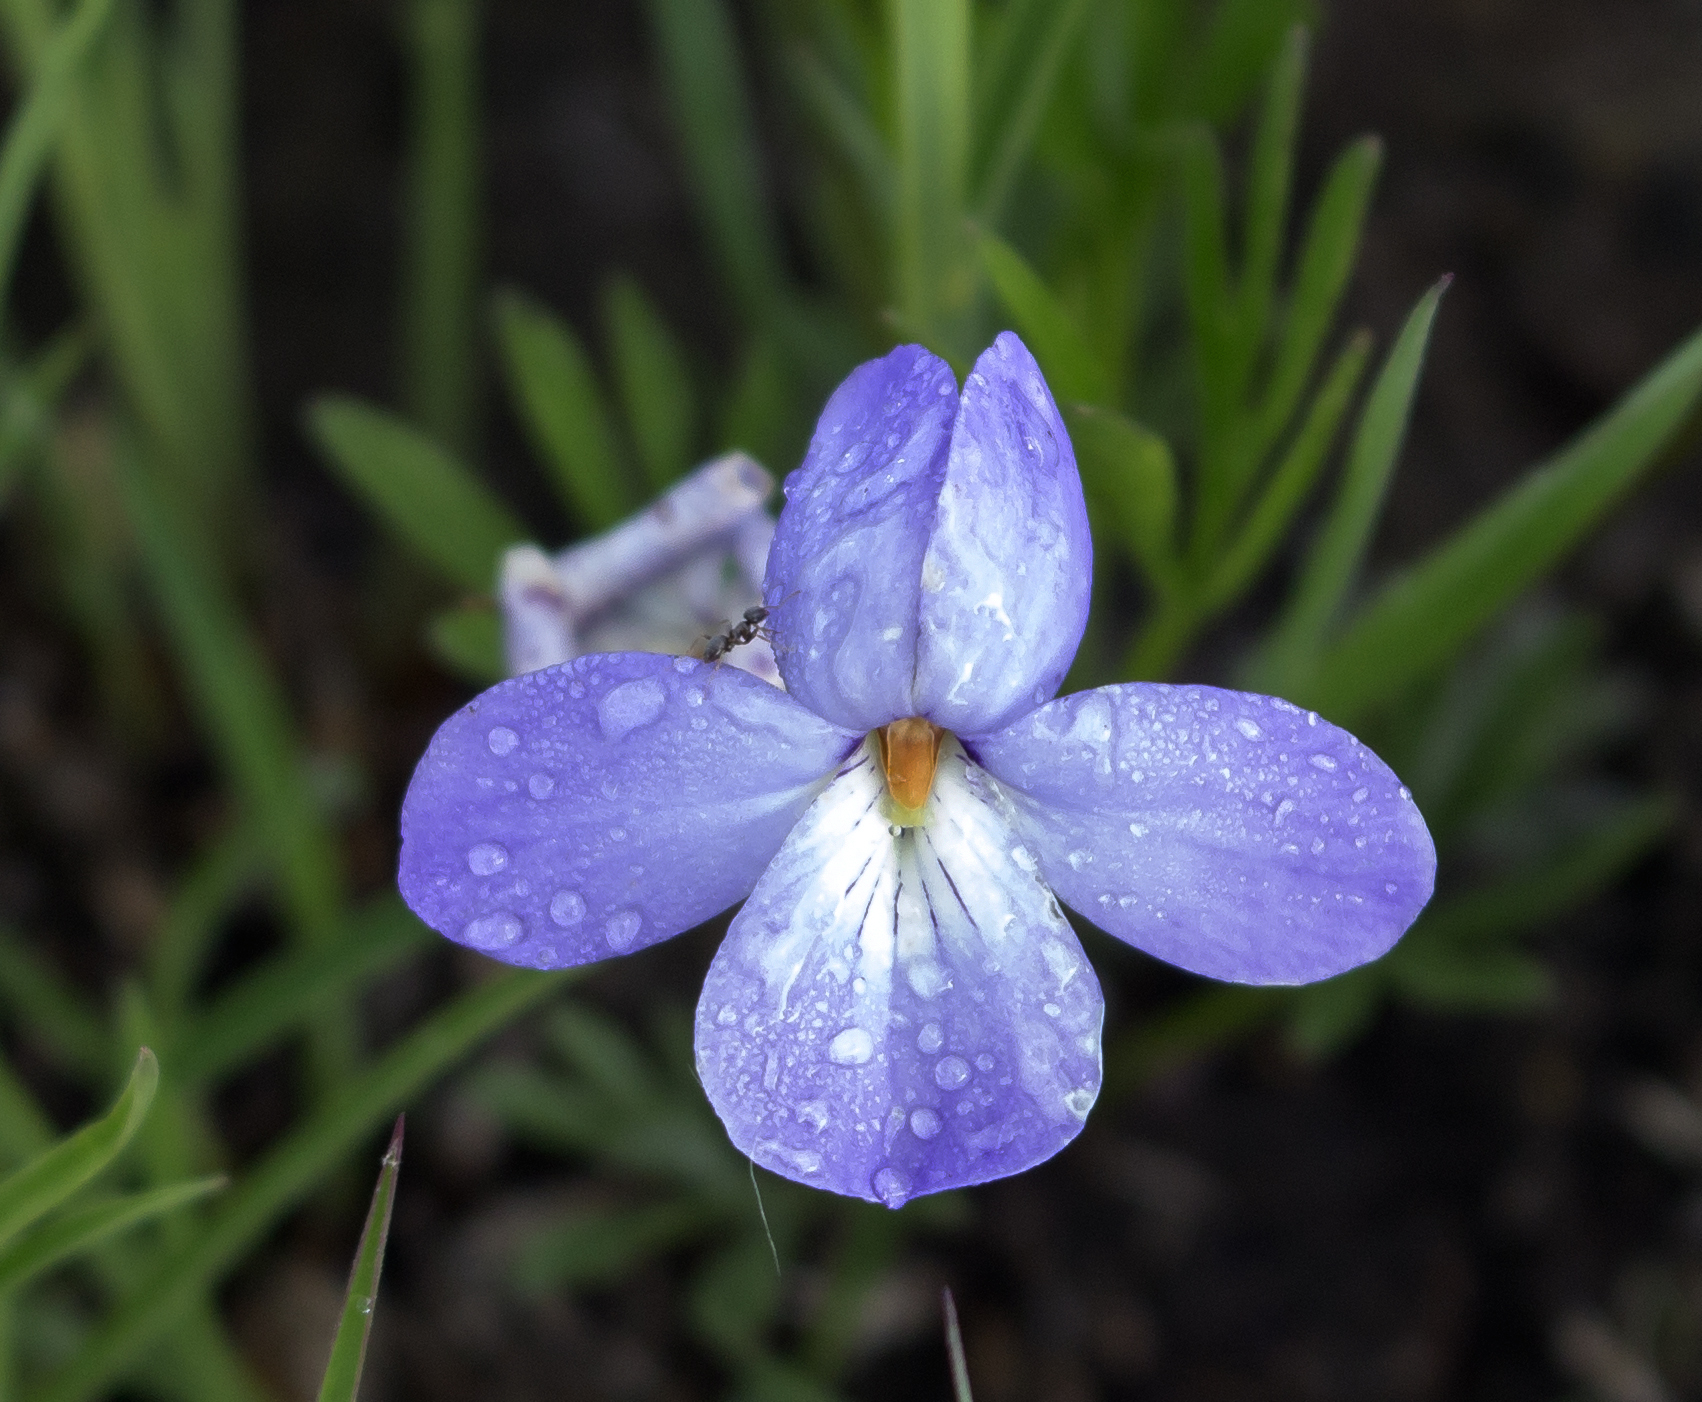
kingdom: Plantae
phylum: Tracheophyta
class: Magnoliopsida
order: Malpighiales
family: Violaceae
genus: Viola
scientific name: Viola pedata
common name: Pansy violet
